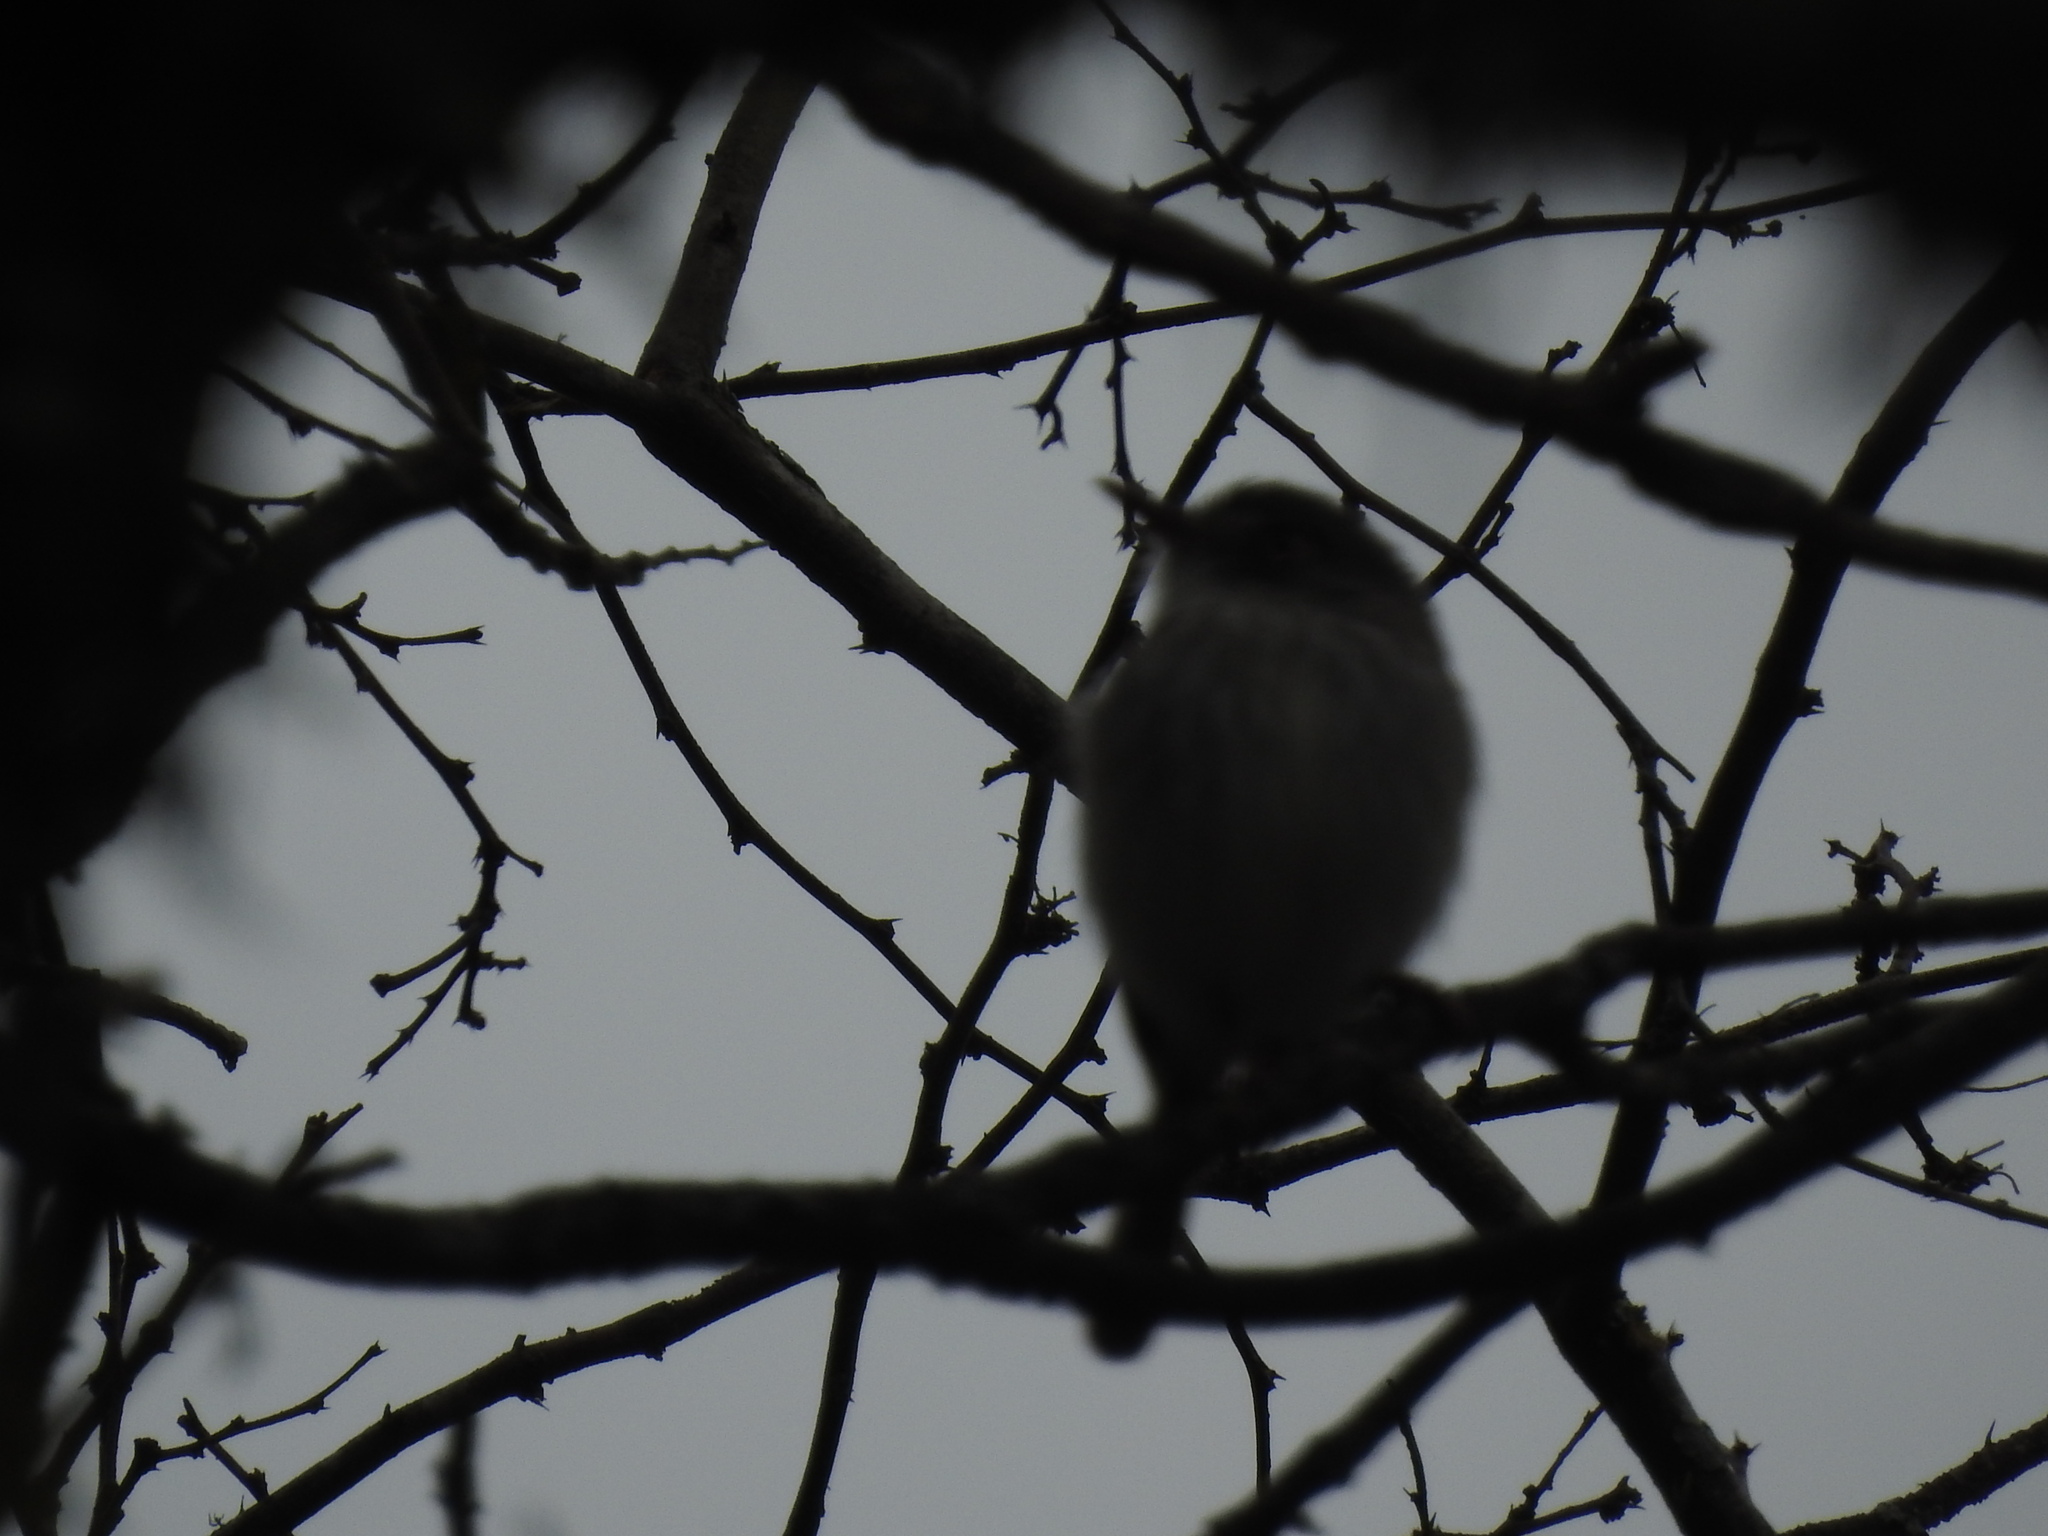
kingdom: Animalia
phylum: Chordata
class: Aves
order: Passeriformes
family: Tyrannidae
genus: Hemitriccus
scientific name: Hemitriccus margaritaceiventer
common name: Pearly-vented tody-tyrant
